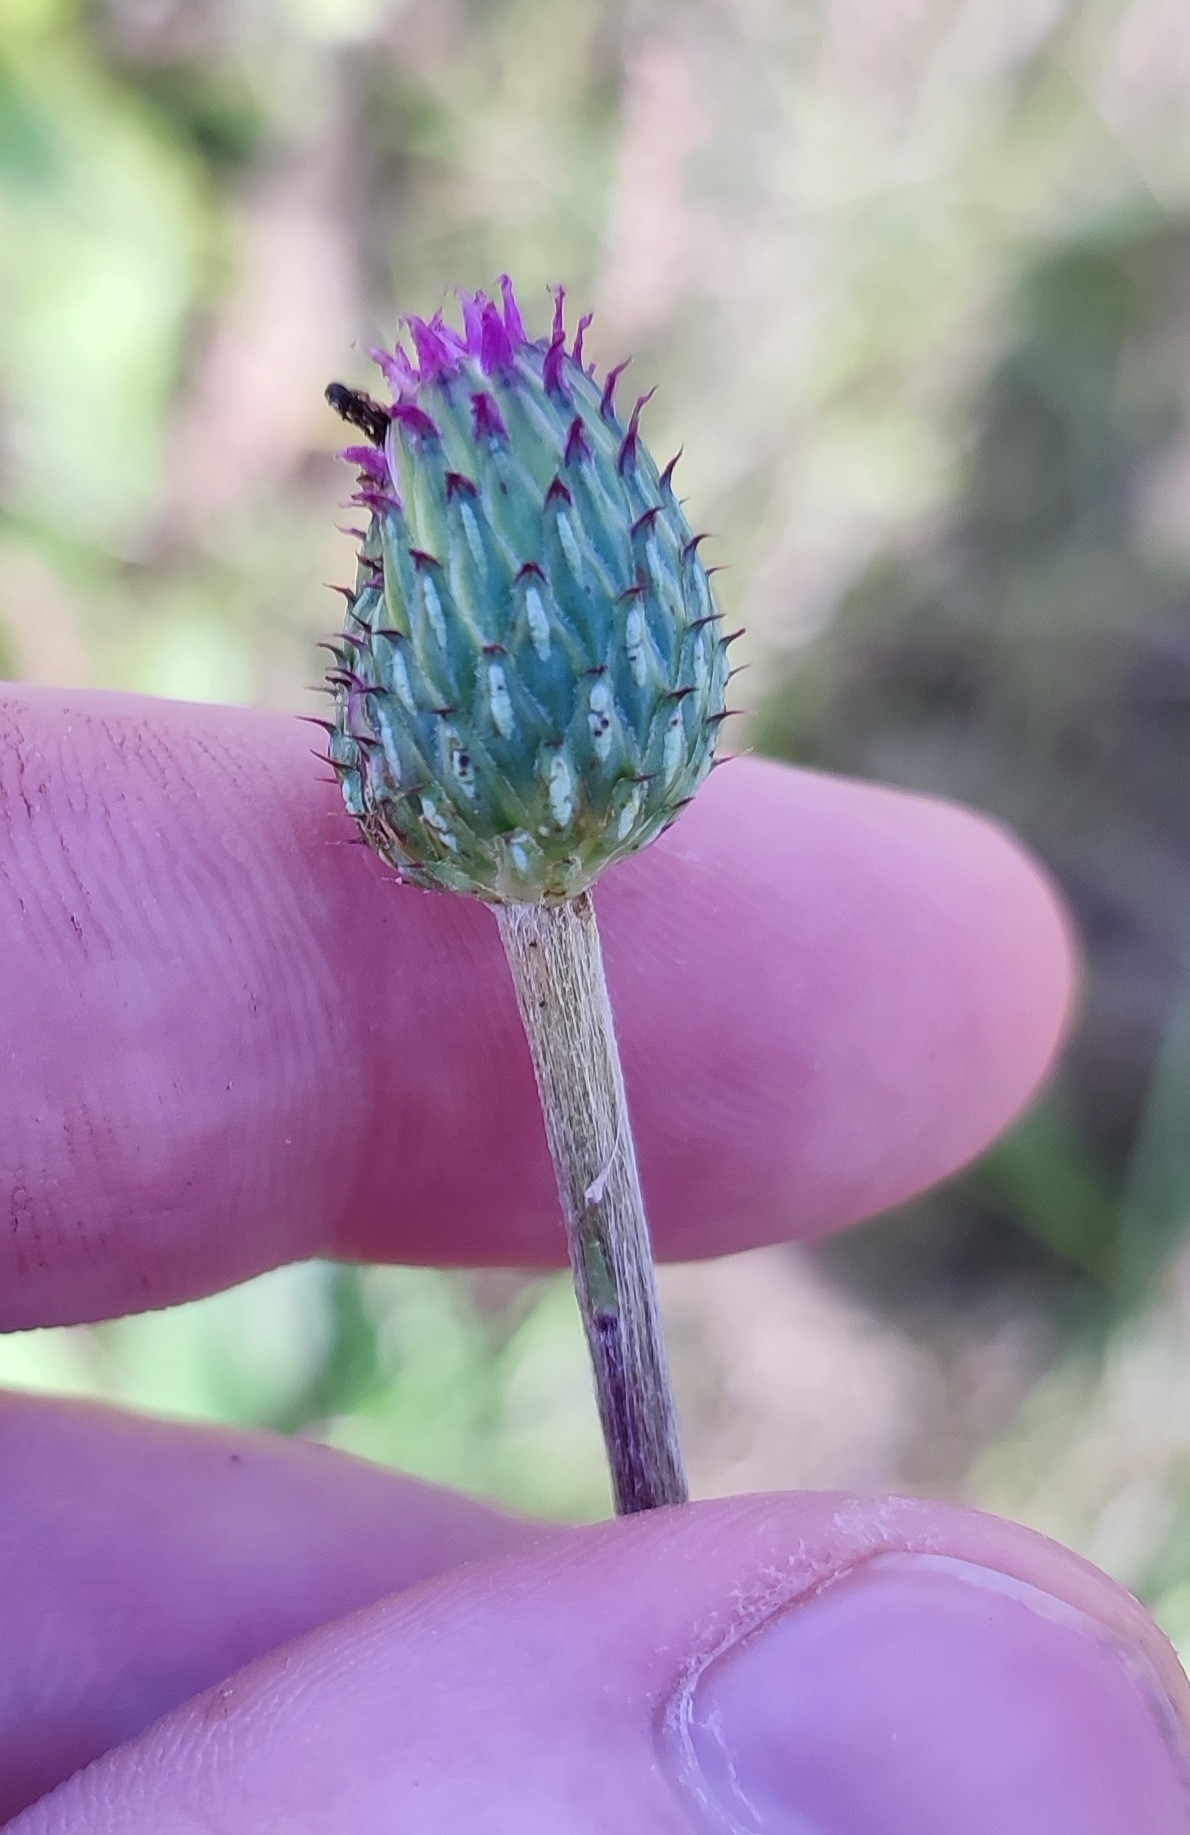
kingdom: Plantae
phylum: Tracheophyta
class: Magnoliopsida
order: Asterales
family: Asteraceae
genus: Cirsium
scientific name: Cirsium canum
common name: Queen anne's thistle
